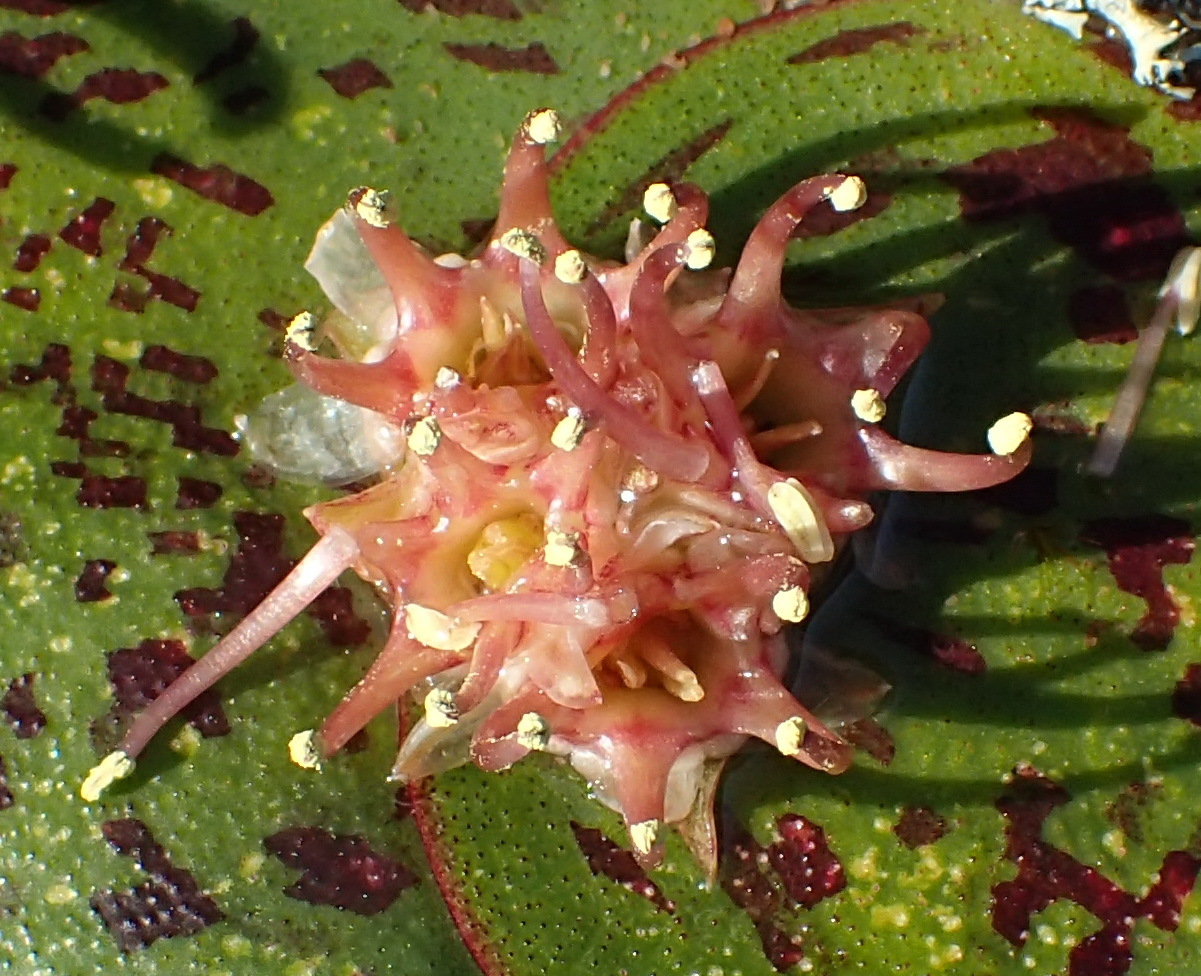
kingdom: Plantae
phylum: Tracheophyta
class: Liliopsida
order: Asparagales
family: Asparagaceae
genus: Massonia
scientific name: Massonia depressa
